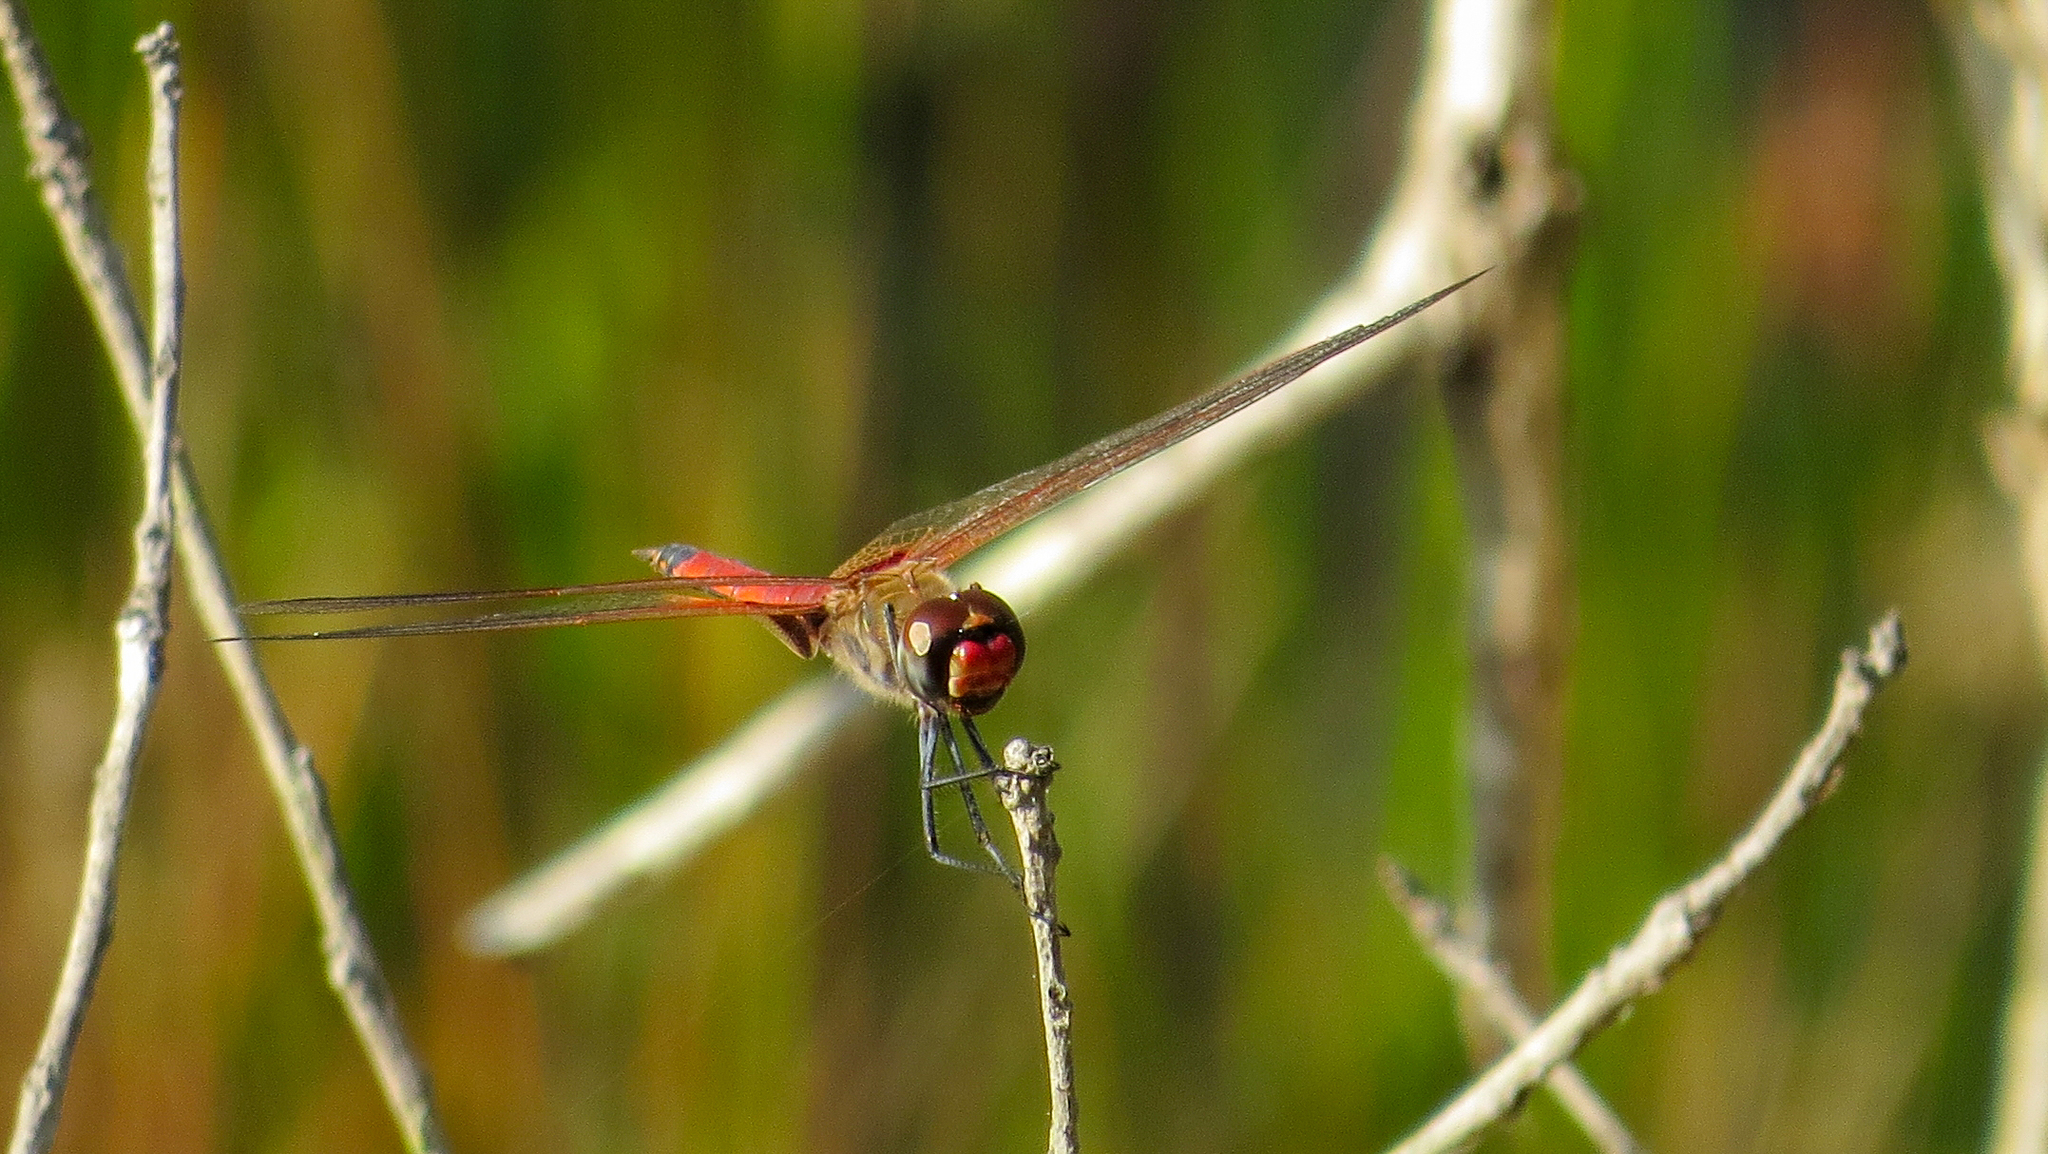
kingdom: Animalia
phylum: Arthropoda
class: Insecta
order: Odonata
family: Libellulidae
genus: Tramea
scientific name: Tramea loewii
